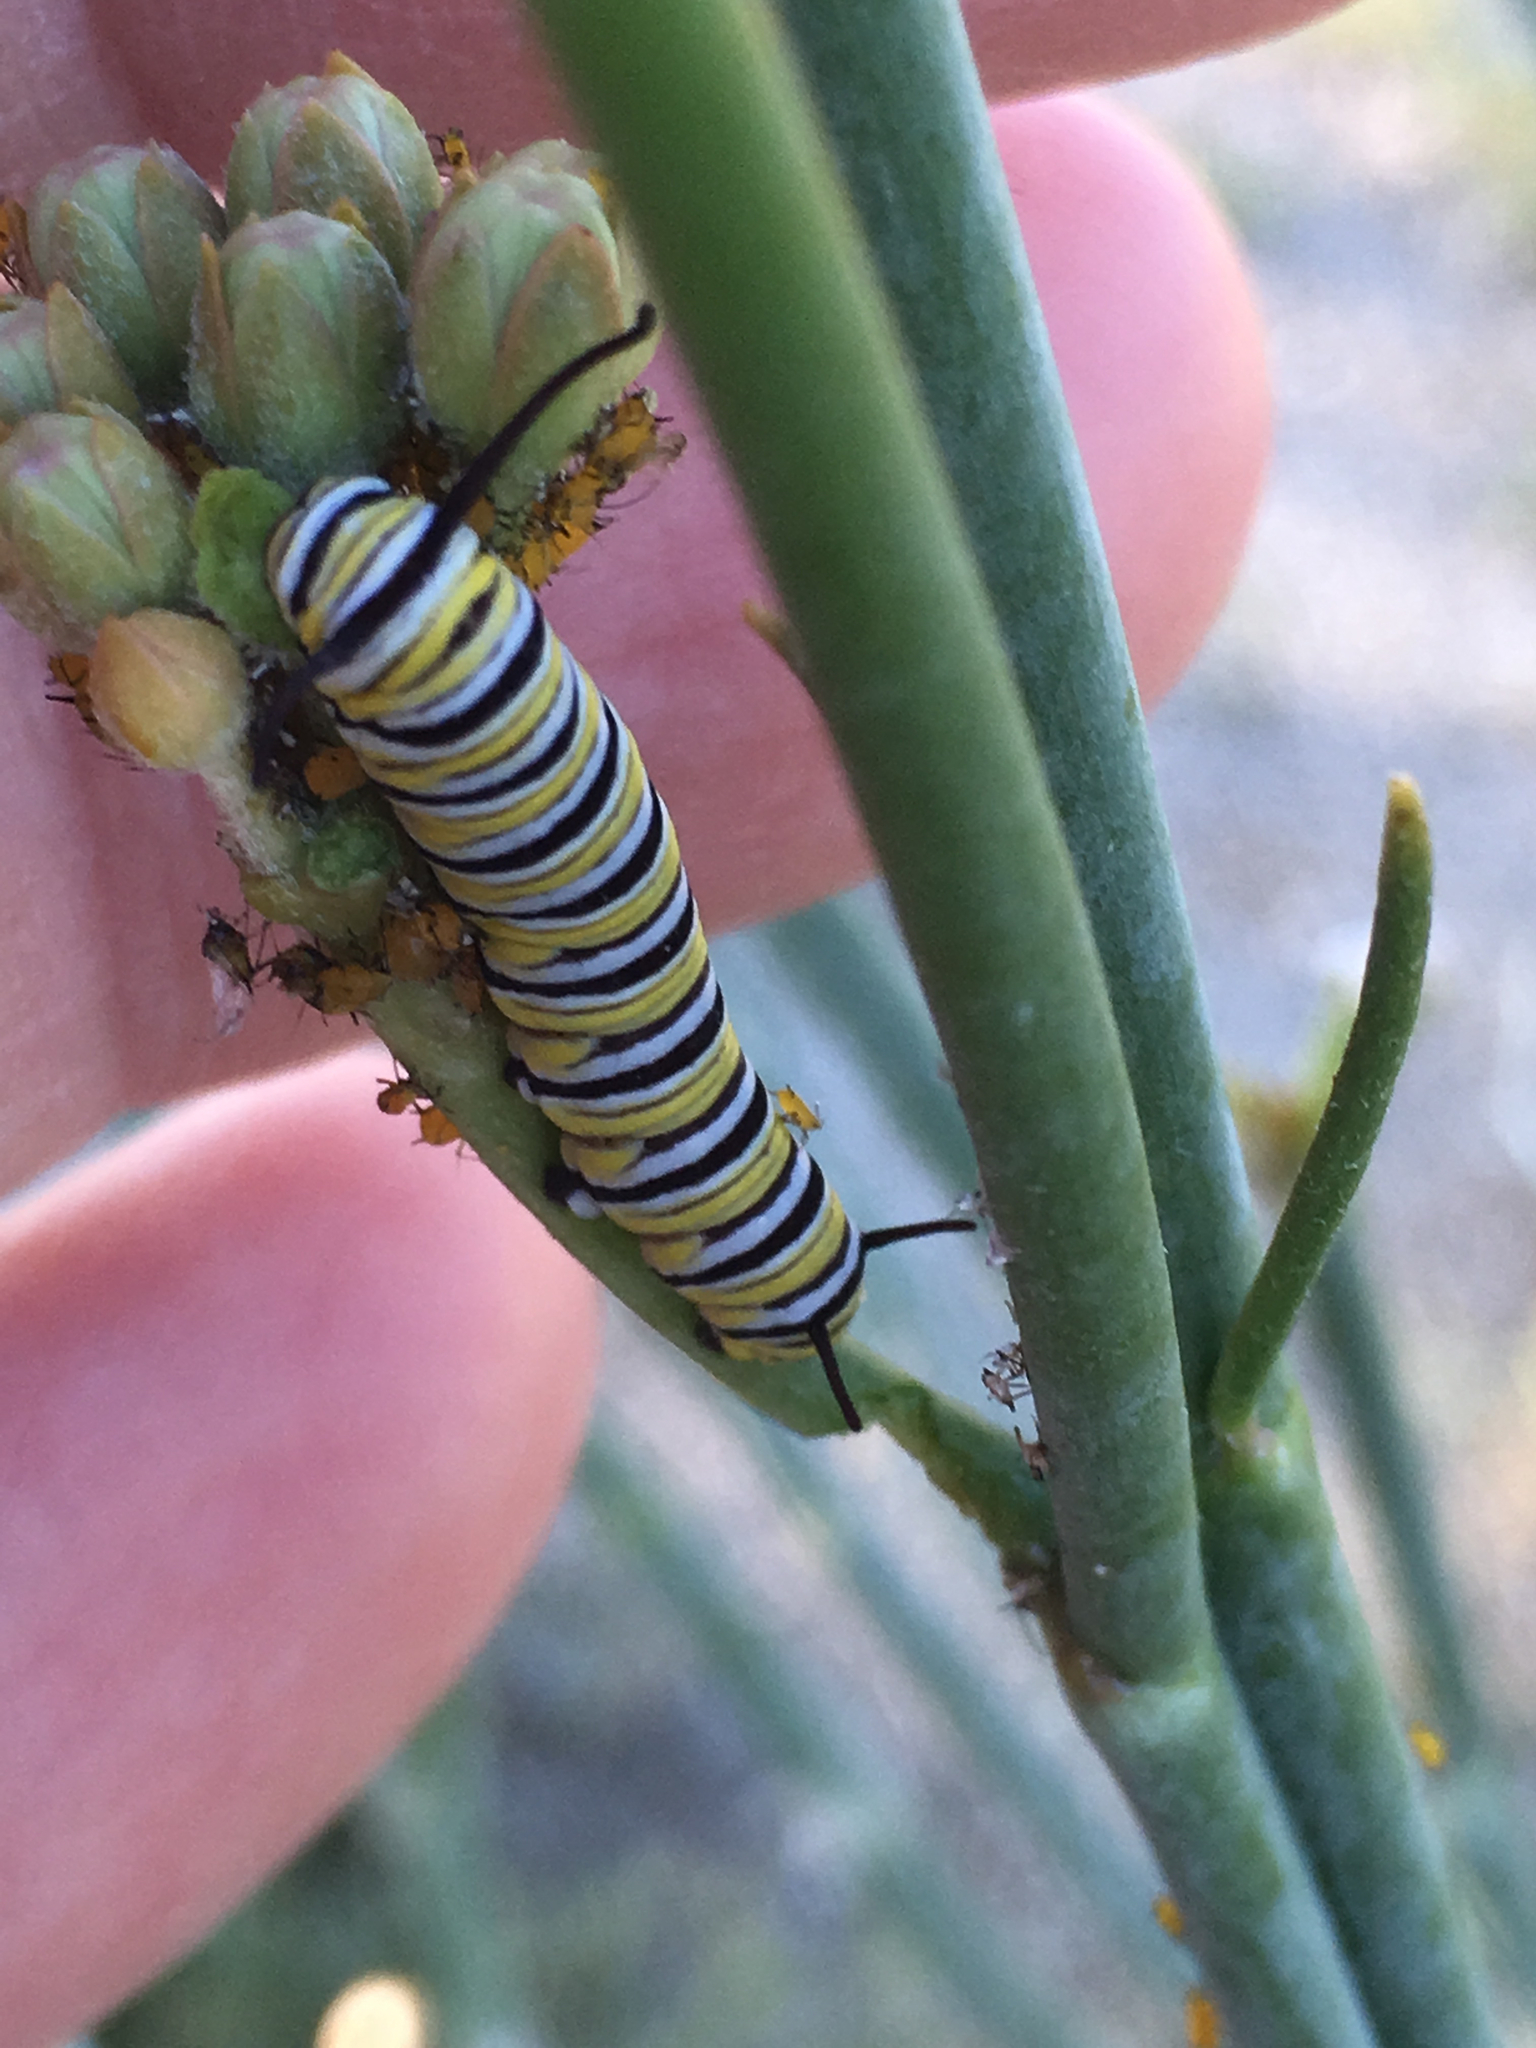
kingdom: Animalia
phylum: Arthropoda
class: Insecta
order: Lepidoptera
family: Nymphalidae
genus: Danaus
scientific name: Danaus plexippus
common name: Monarch
